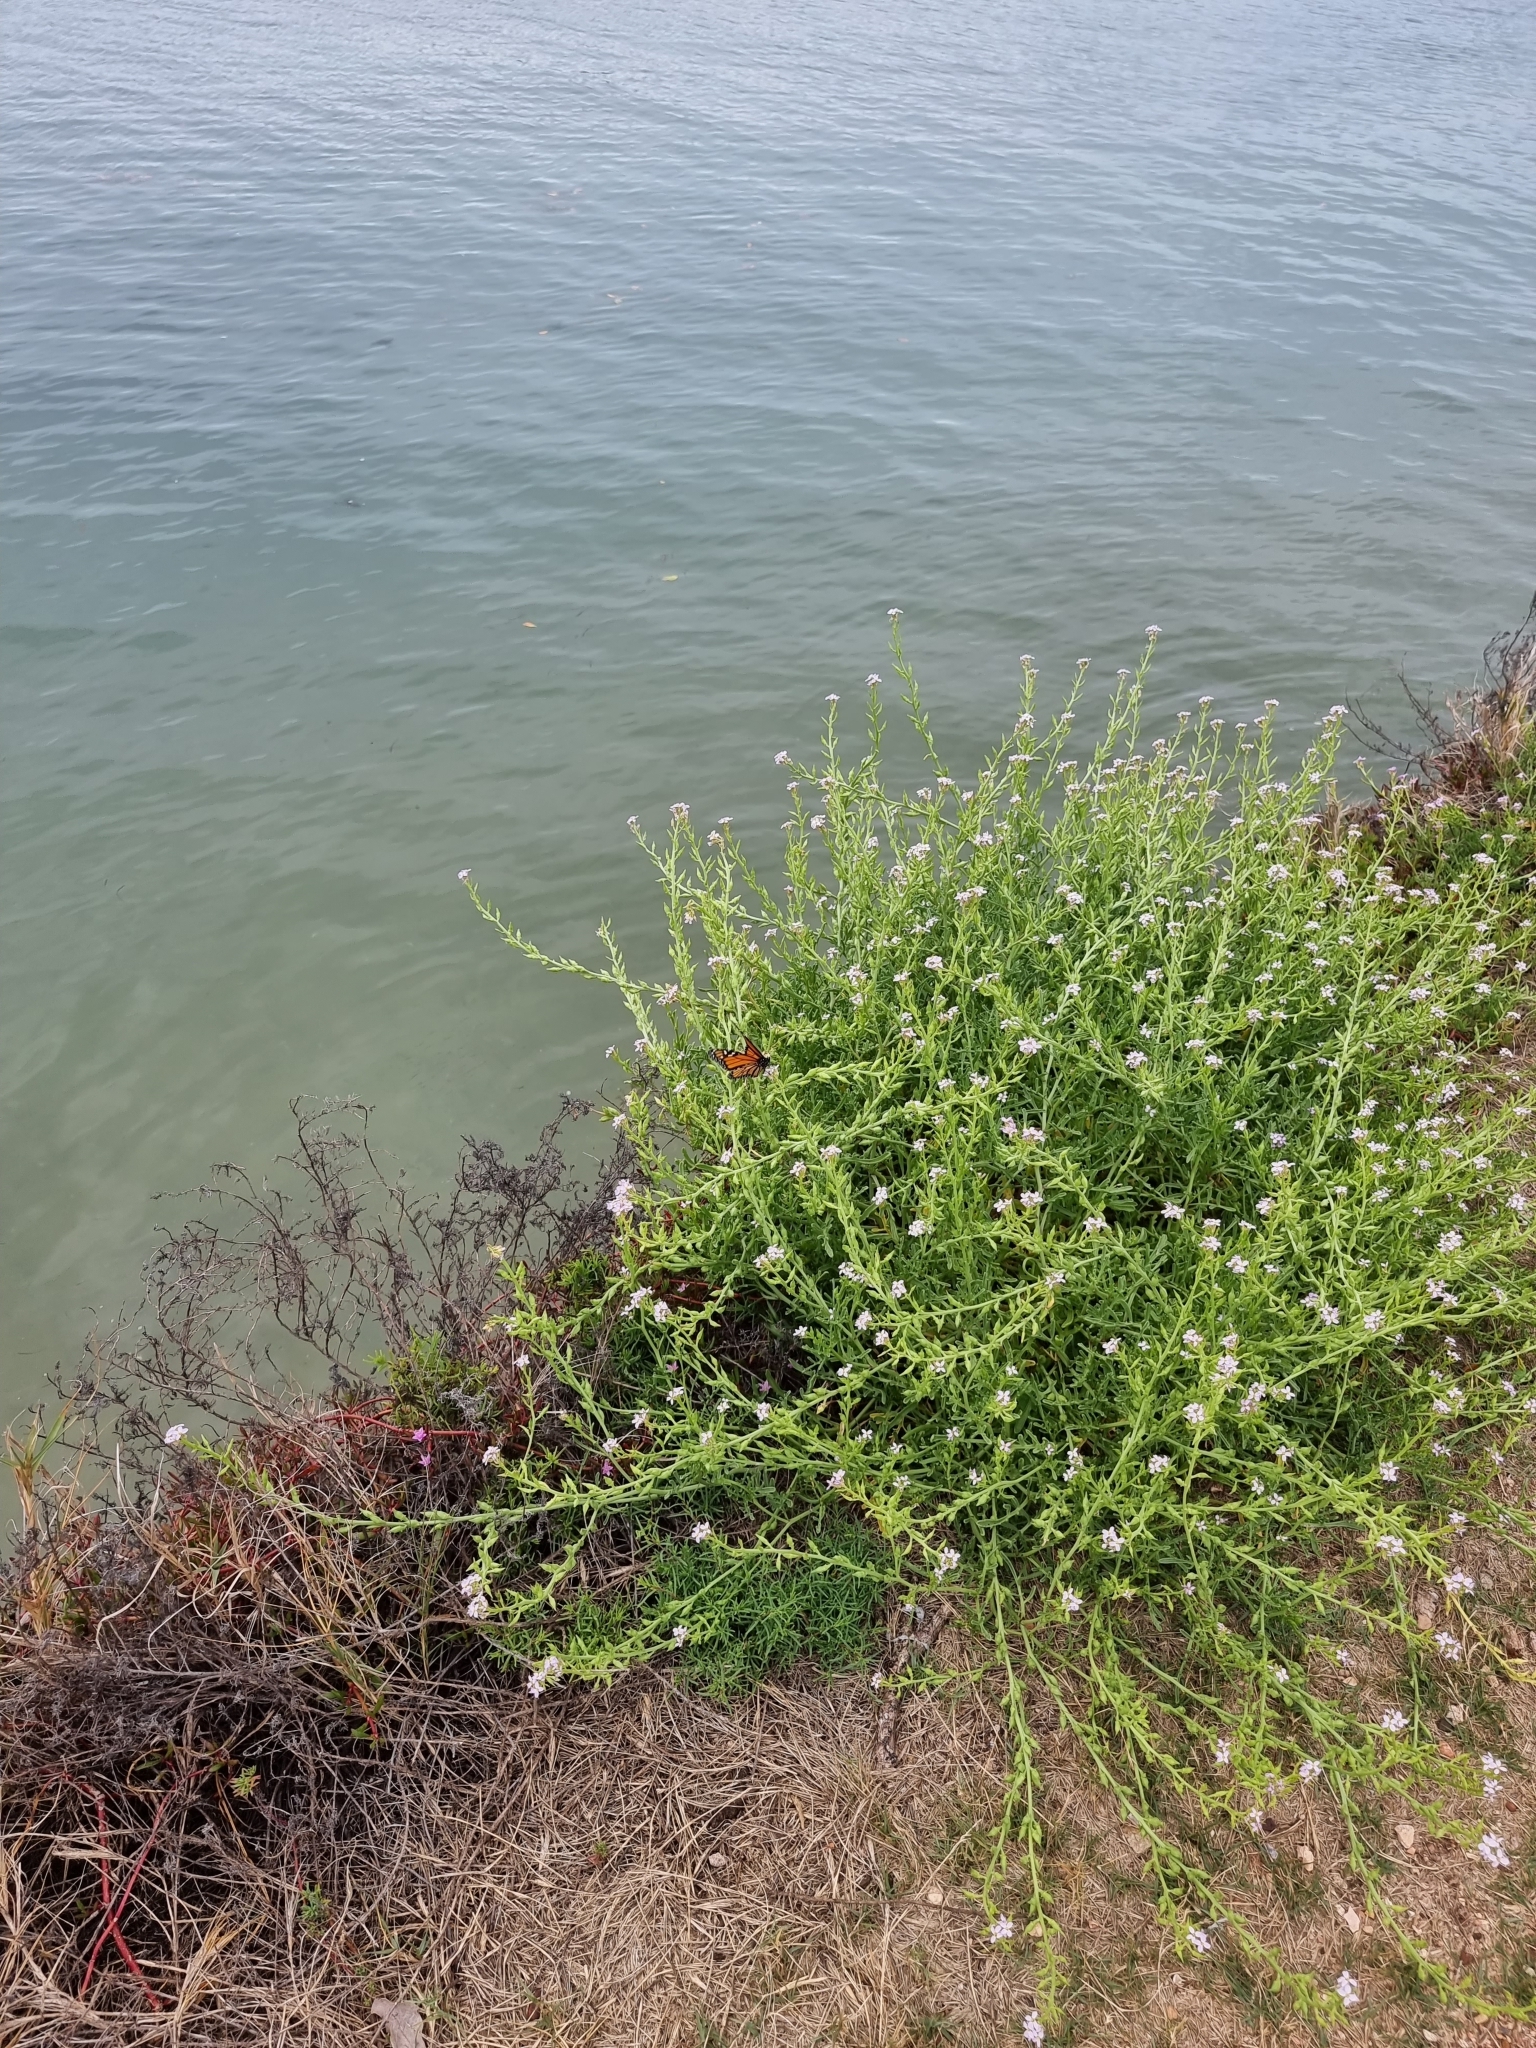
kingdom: Plantae
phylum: Tracheophyta
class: Magnoliopsida
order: Brassicales
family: Brassicaceae
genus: Cakile
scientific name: Cakile maritima
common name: Sea rocket
